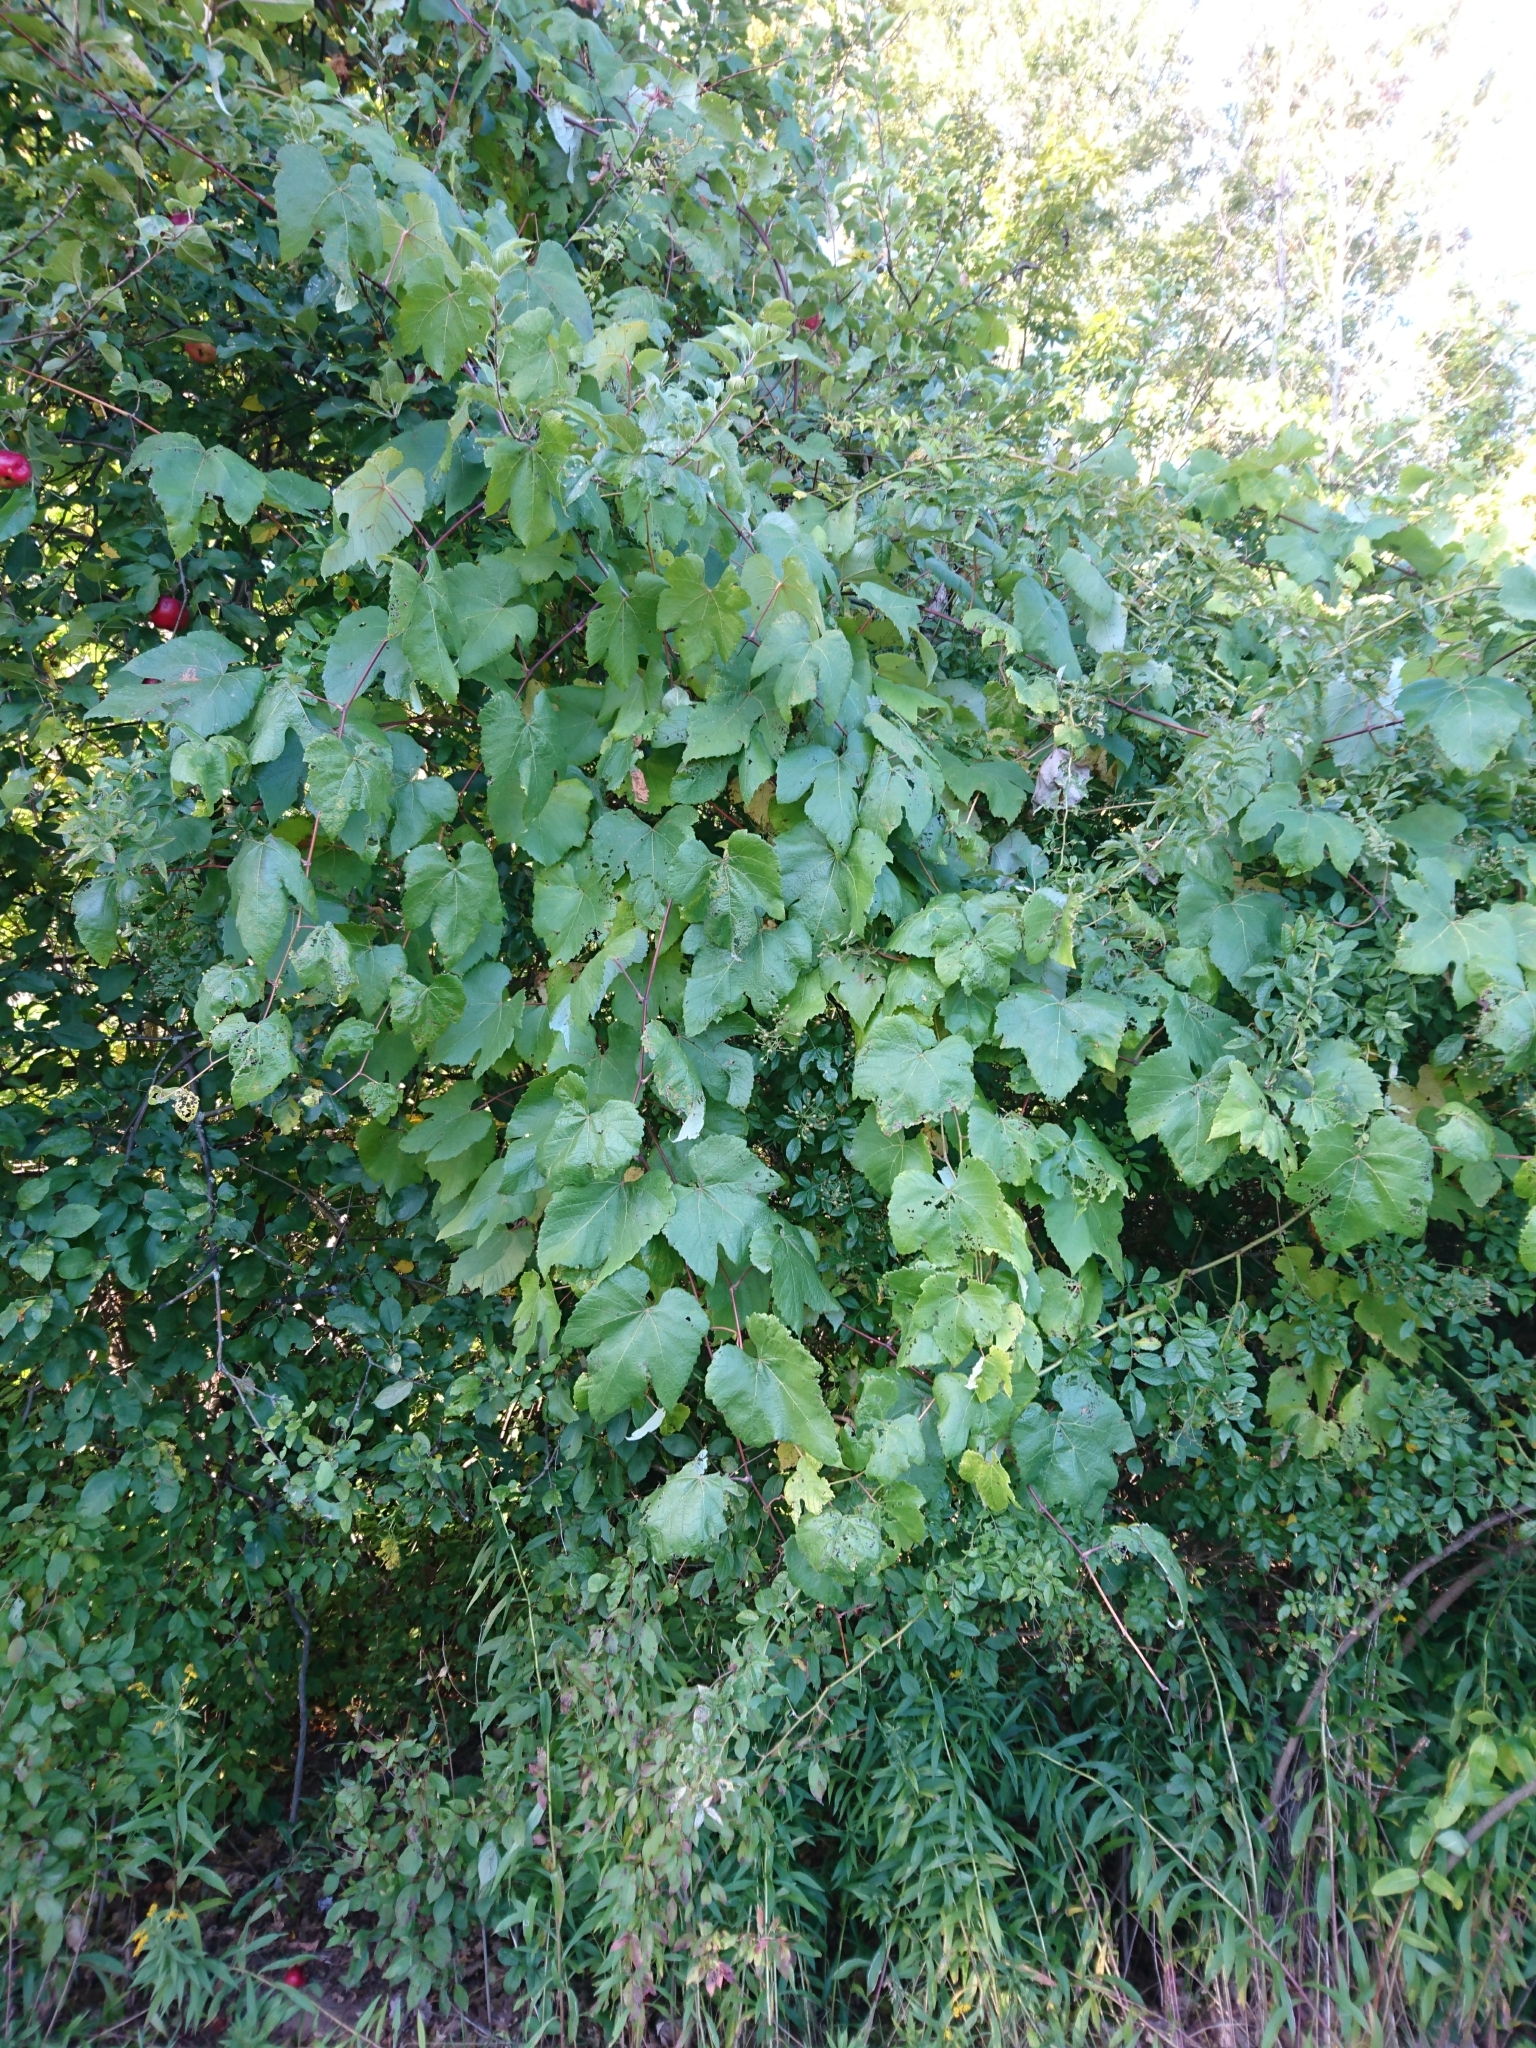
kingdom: Plantae
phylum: Tracheophyta
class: Magnoliopsida
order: Vitales
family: Vitaceae
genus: Vitis
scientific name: Vitis riparia
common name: Frost grape
